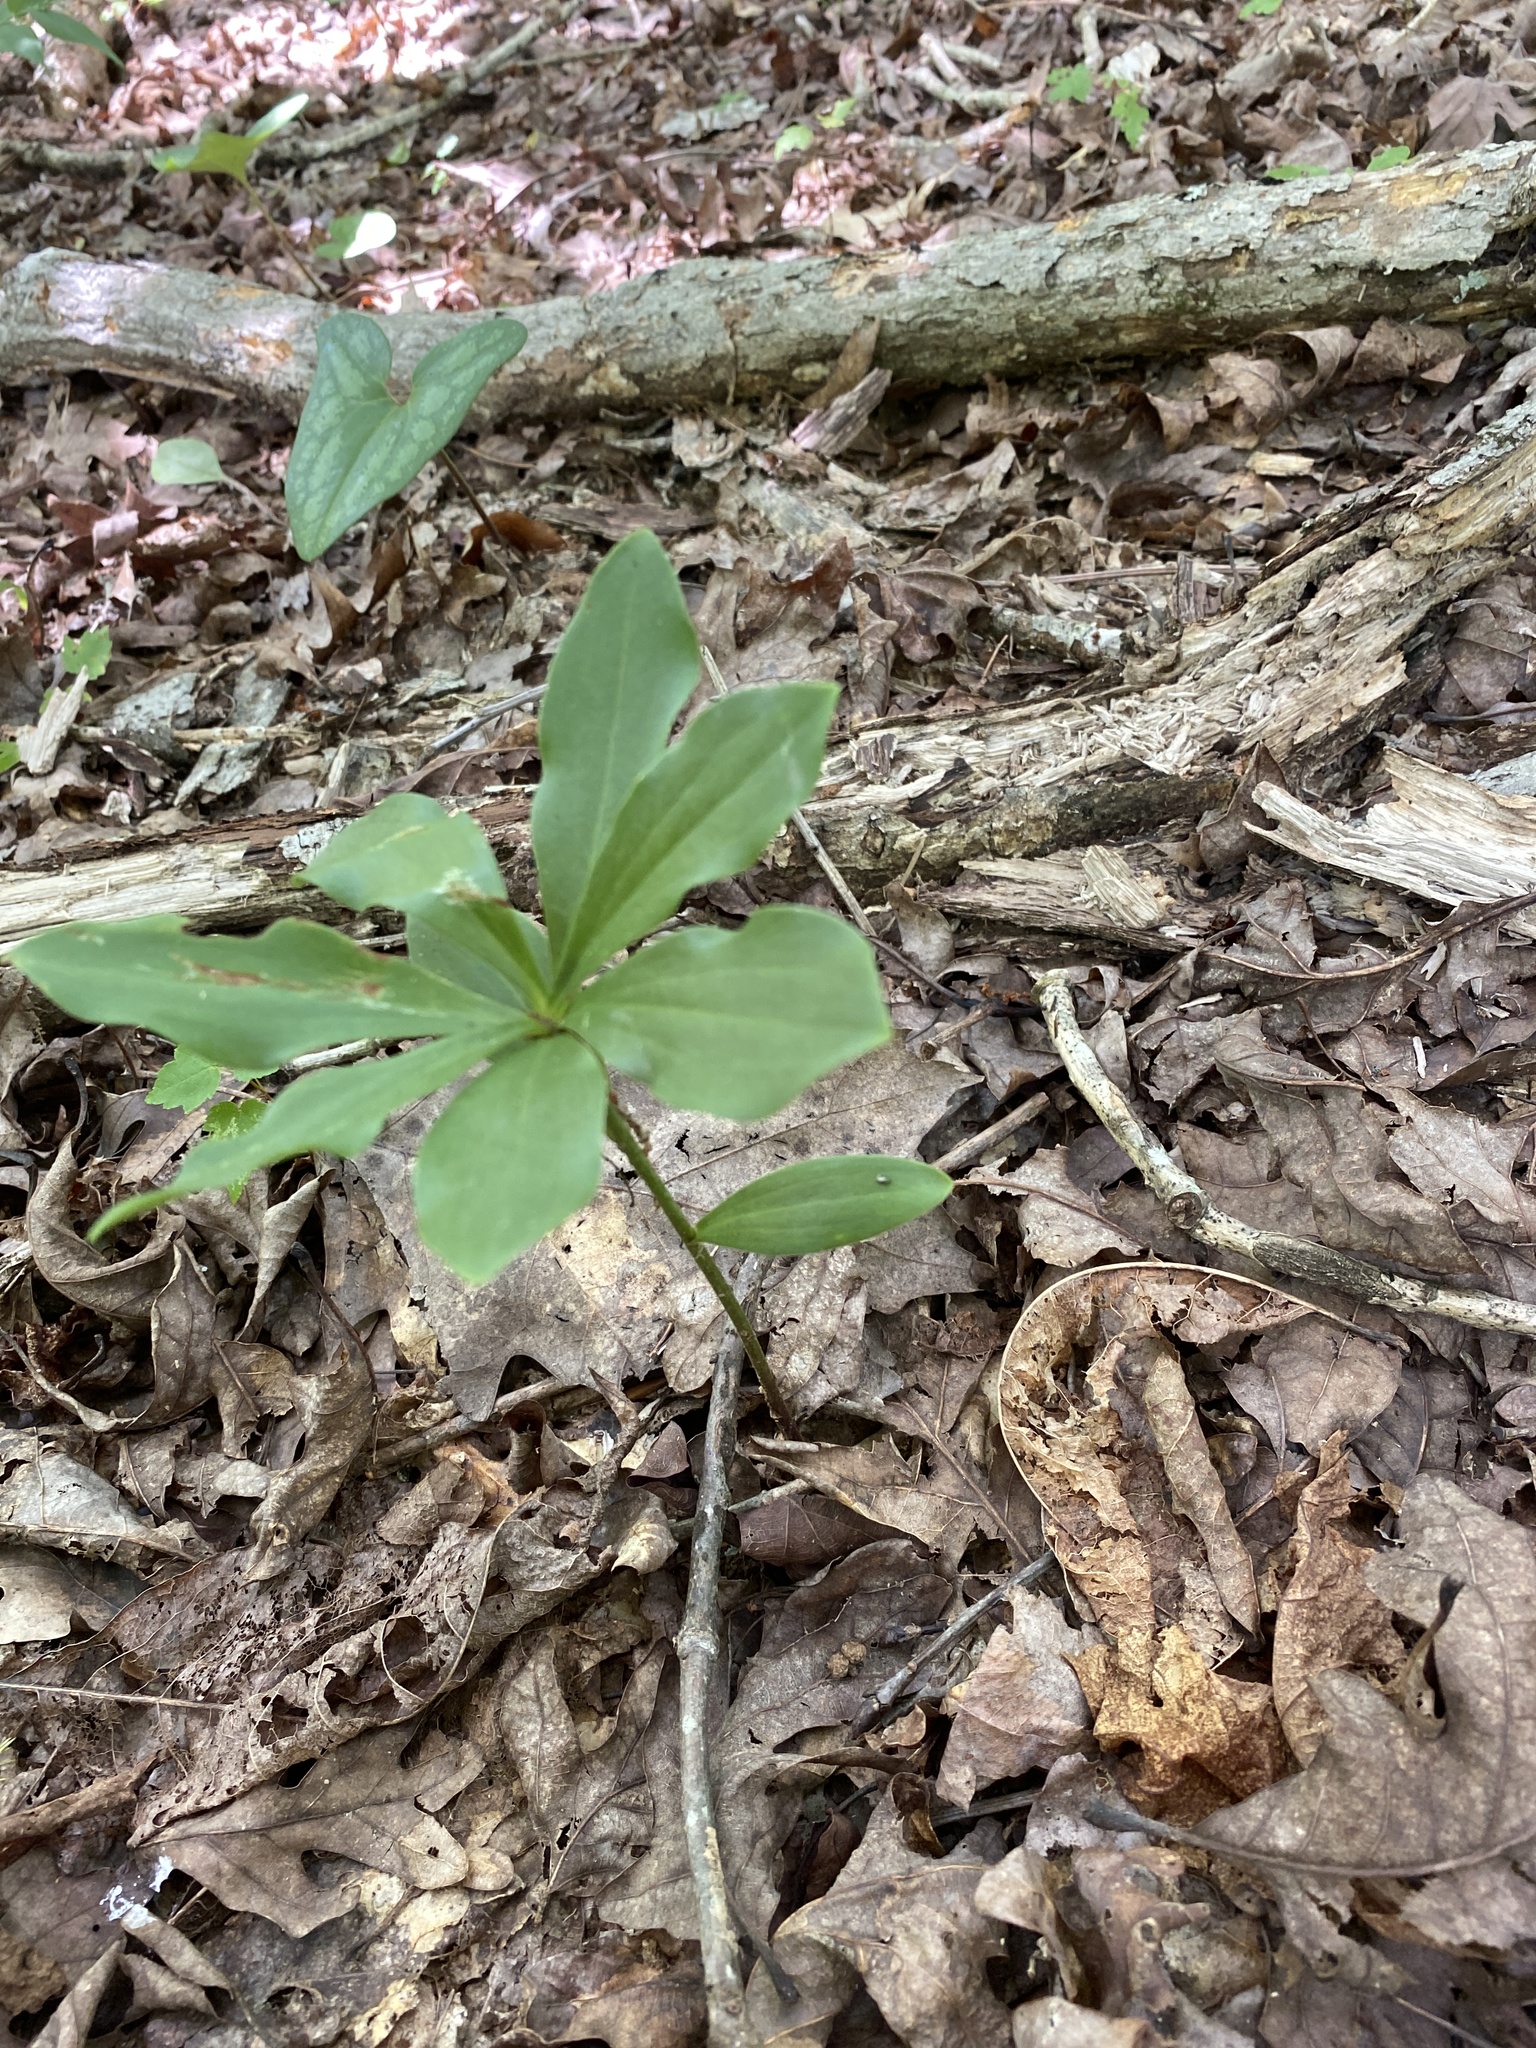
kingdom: Plantae
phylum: Tracheophyta
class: Liliopsida
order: Liliales
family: Liliaceae
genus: Lilium
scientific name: Lilium michauxii
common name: Carolina lily
